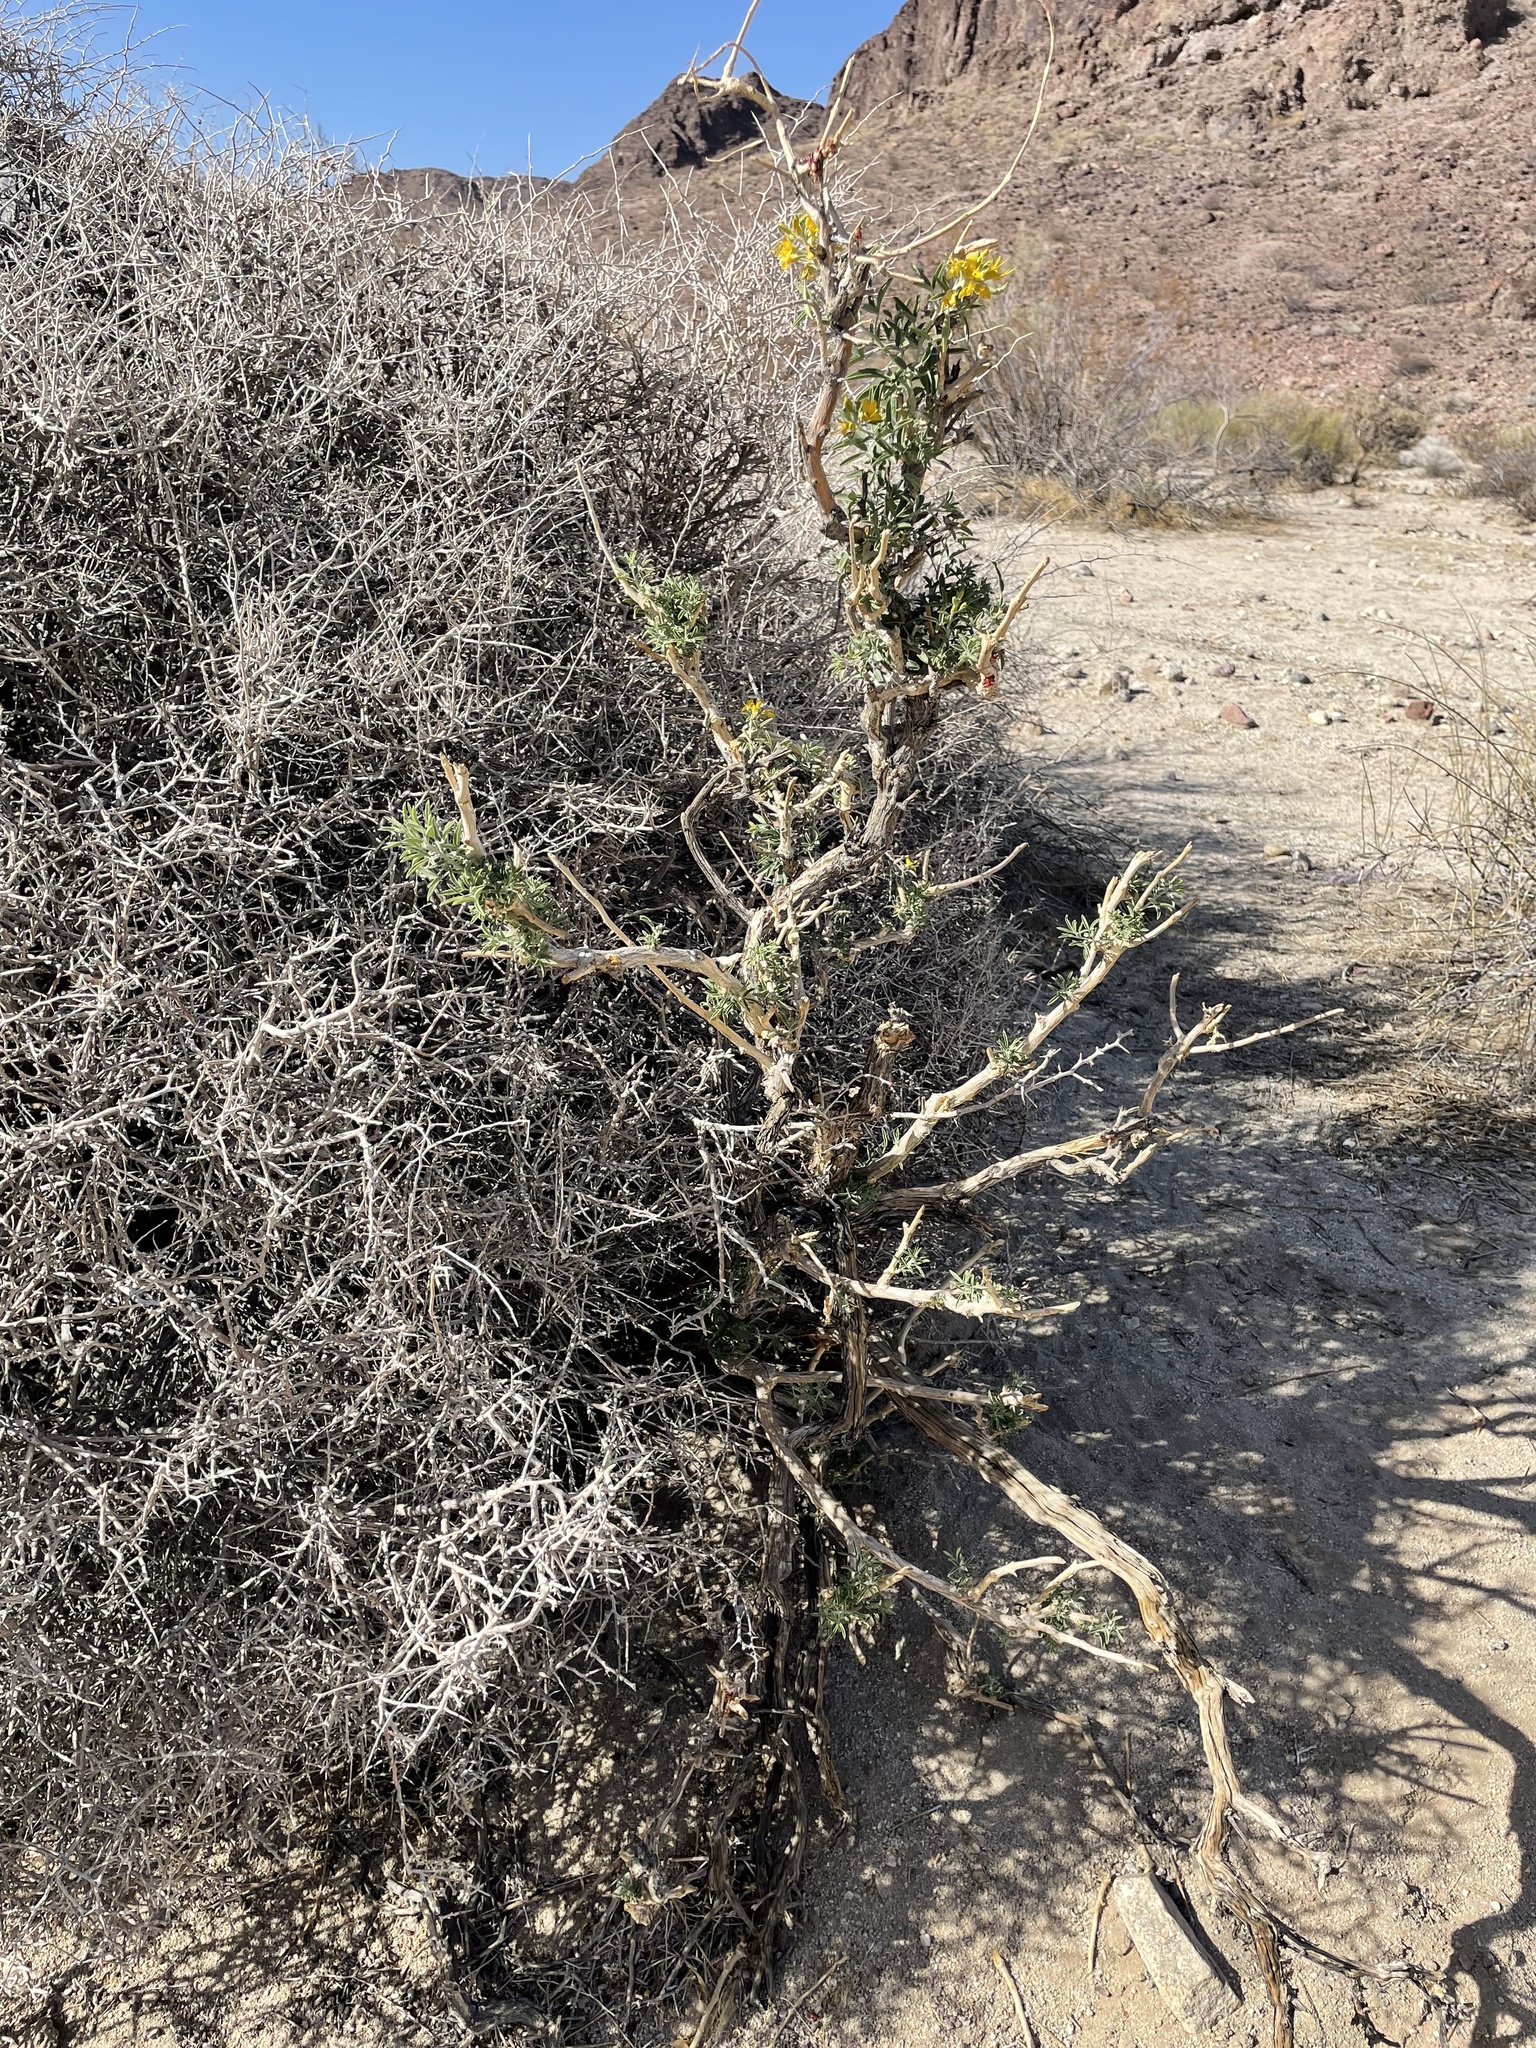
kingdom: Plantae
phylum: Tracheophyta
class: Magnoliopsida
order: Brassicales
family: Cleomaceae
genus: Cleomella
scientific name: Cleomella arborea
